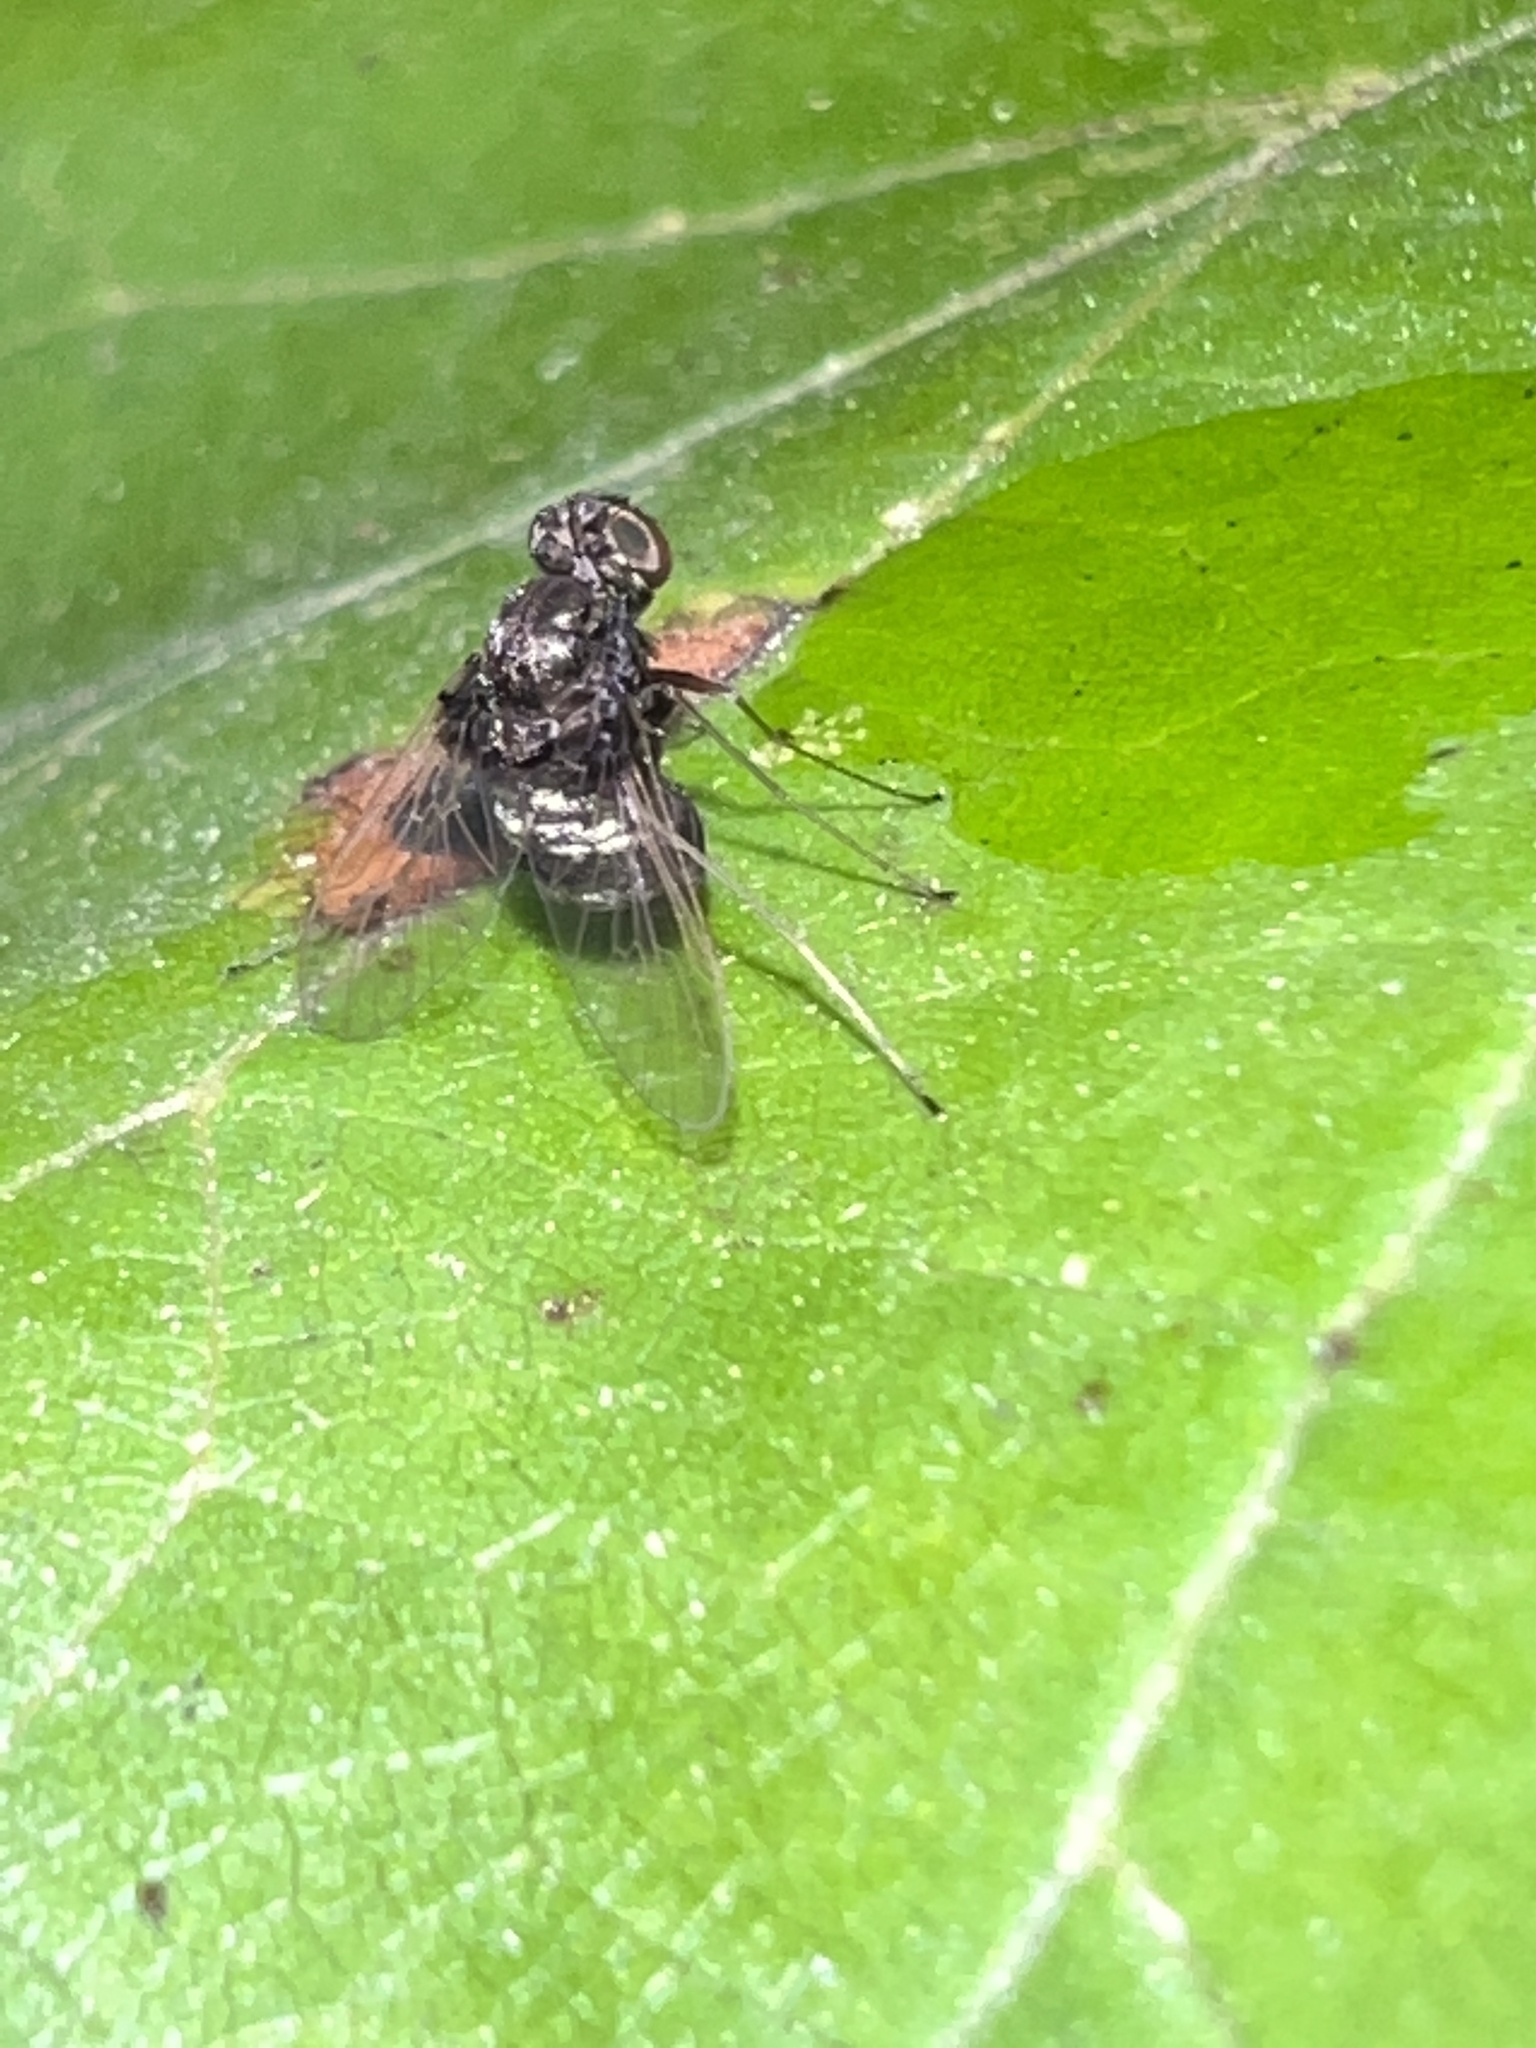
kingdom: Animalia
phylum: Arthropoda
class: Insecta
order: Diptera
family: Rhagionidae
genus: Chrysopilus
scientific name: Chrysopilus basilaris
